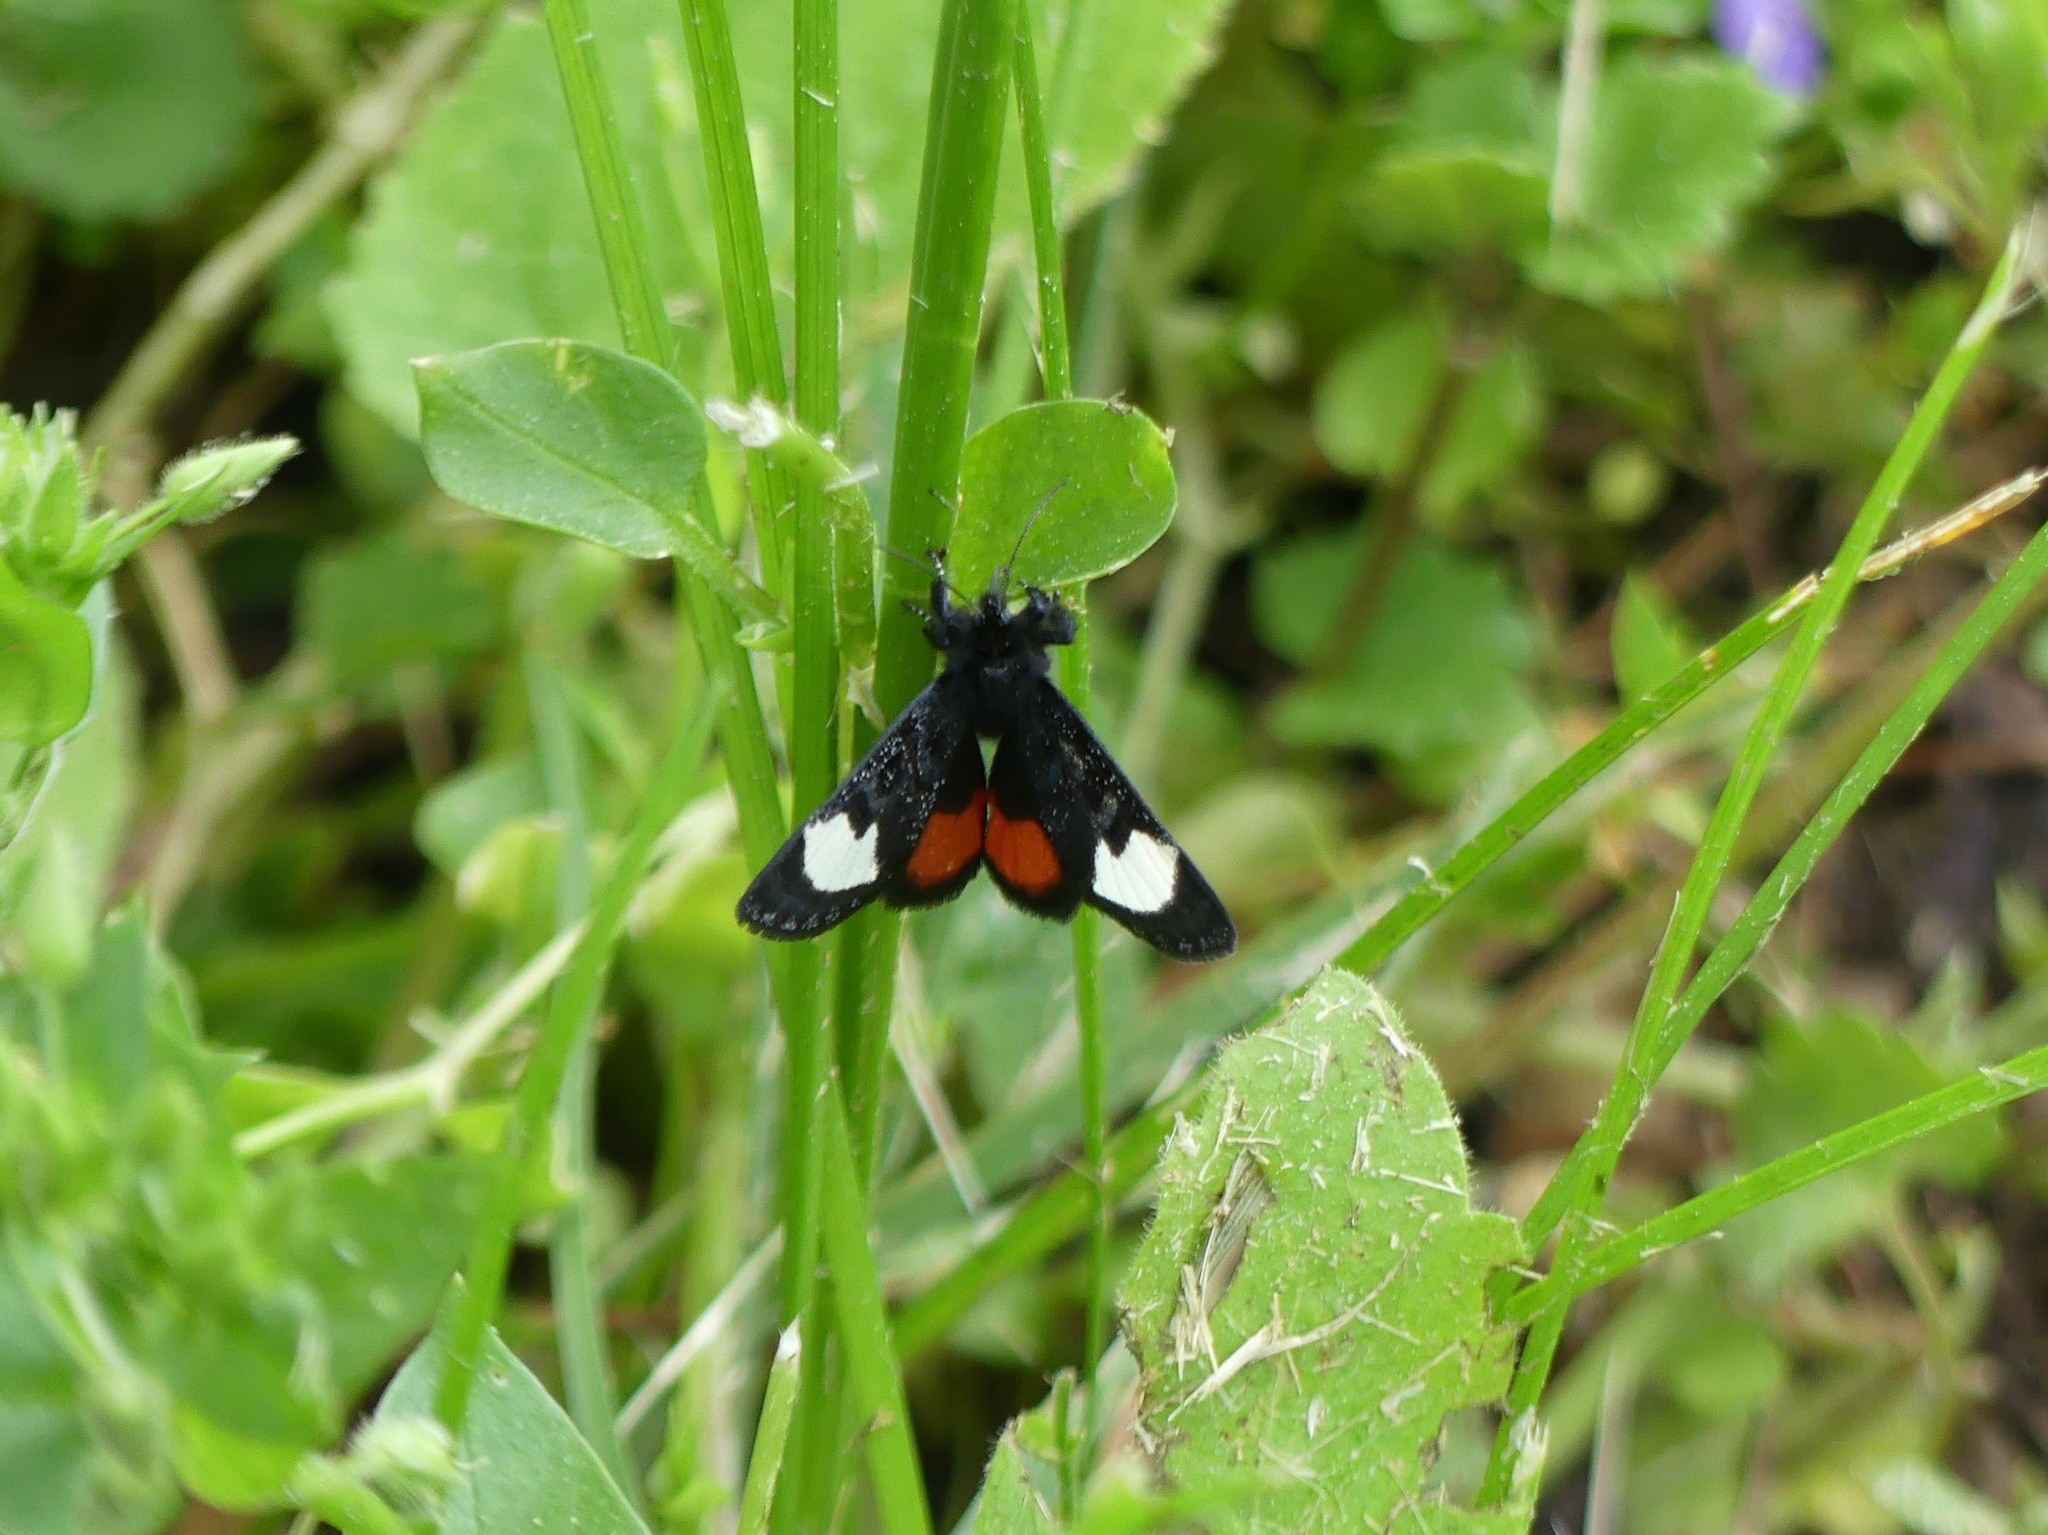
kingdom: Animalia
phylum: Arthropoda
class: Insecta
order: Lepidoptera
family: Noctuidae
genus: Psychomorpha
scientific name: Psychomorpha epimenis
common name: Grapevine epimenis moth
